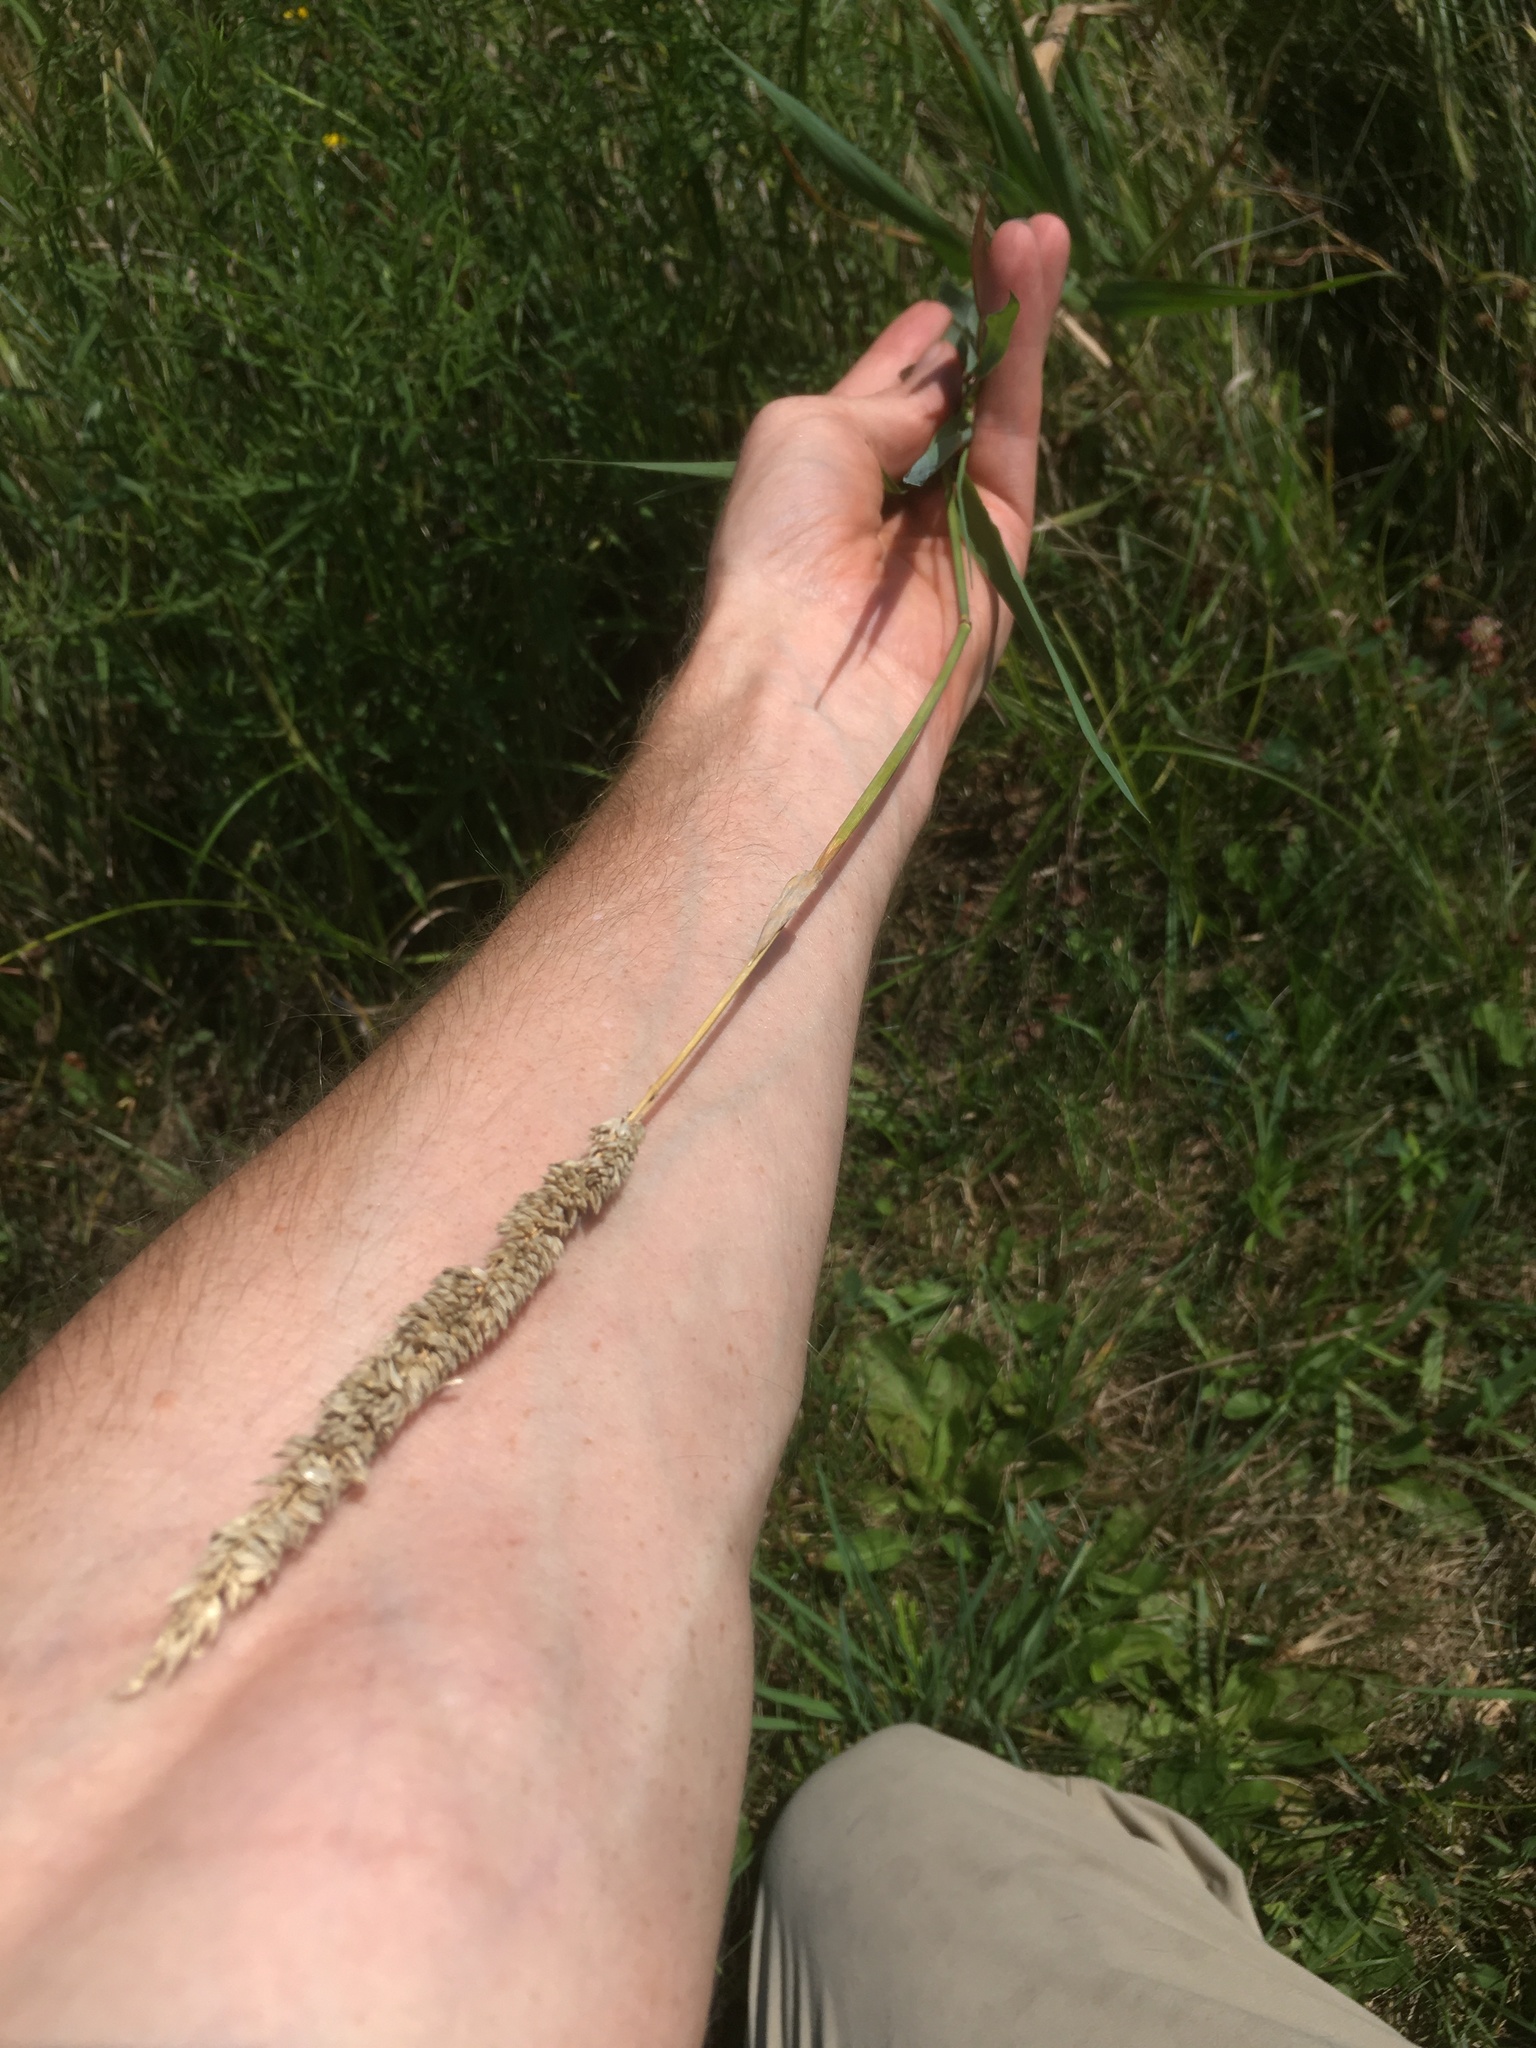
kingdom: Plantae
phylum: Tracheophyta
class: Liliopsida
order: Poales
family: Poaceae
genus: Phalaris
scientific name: Phalaris arundinacea
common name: Reed canary-grass
